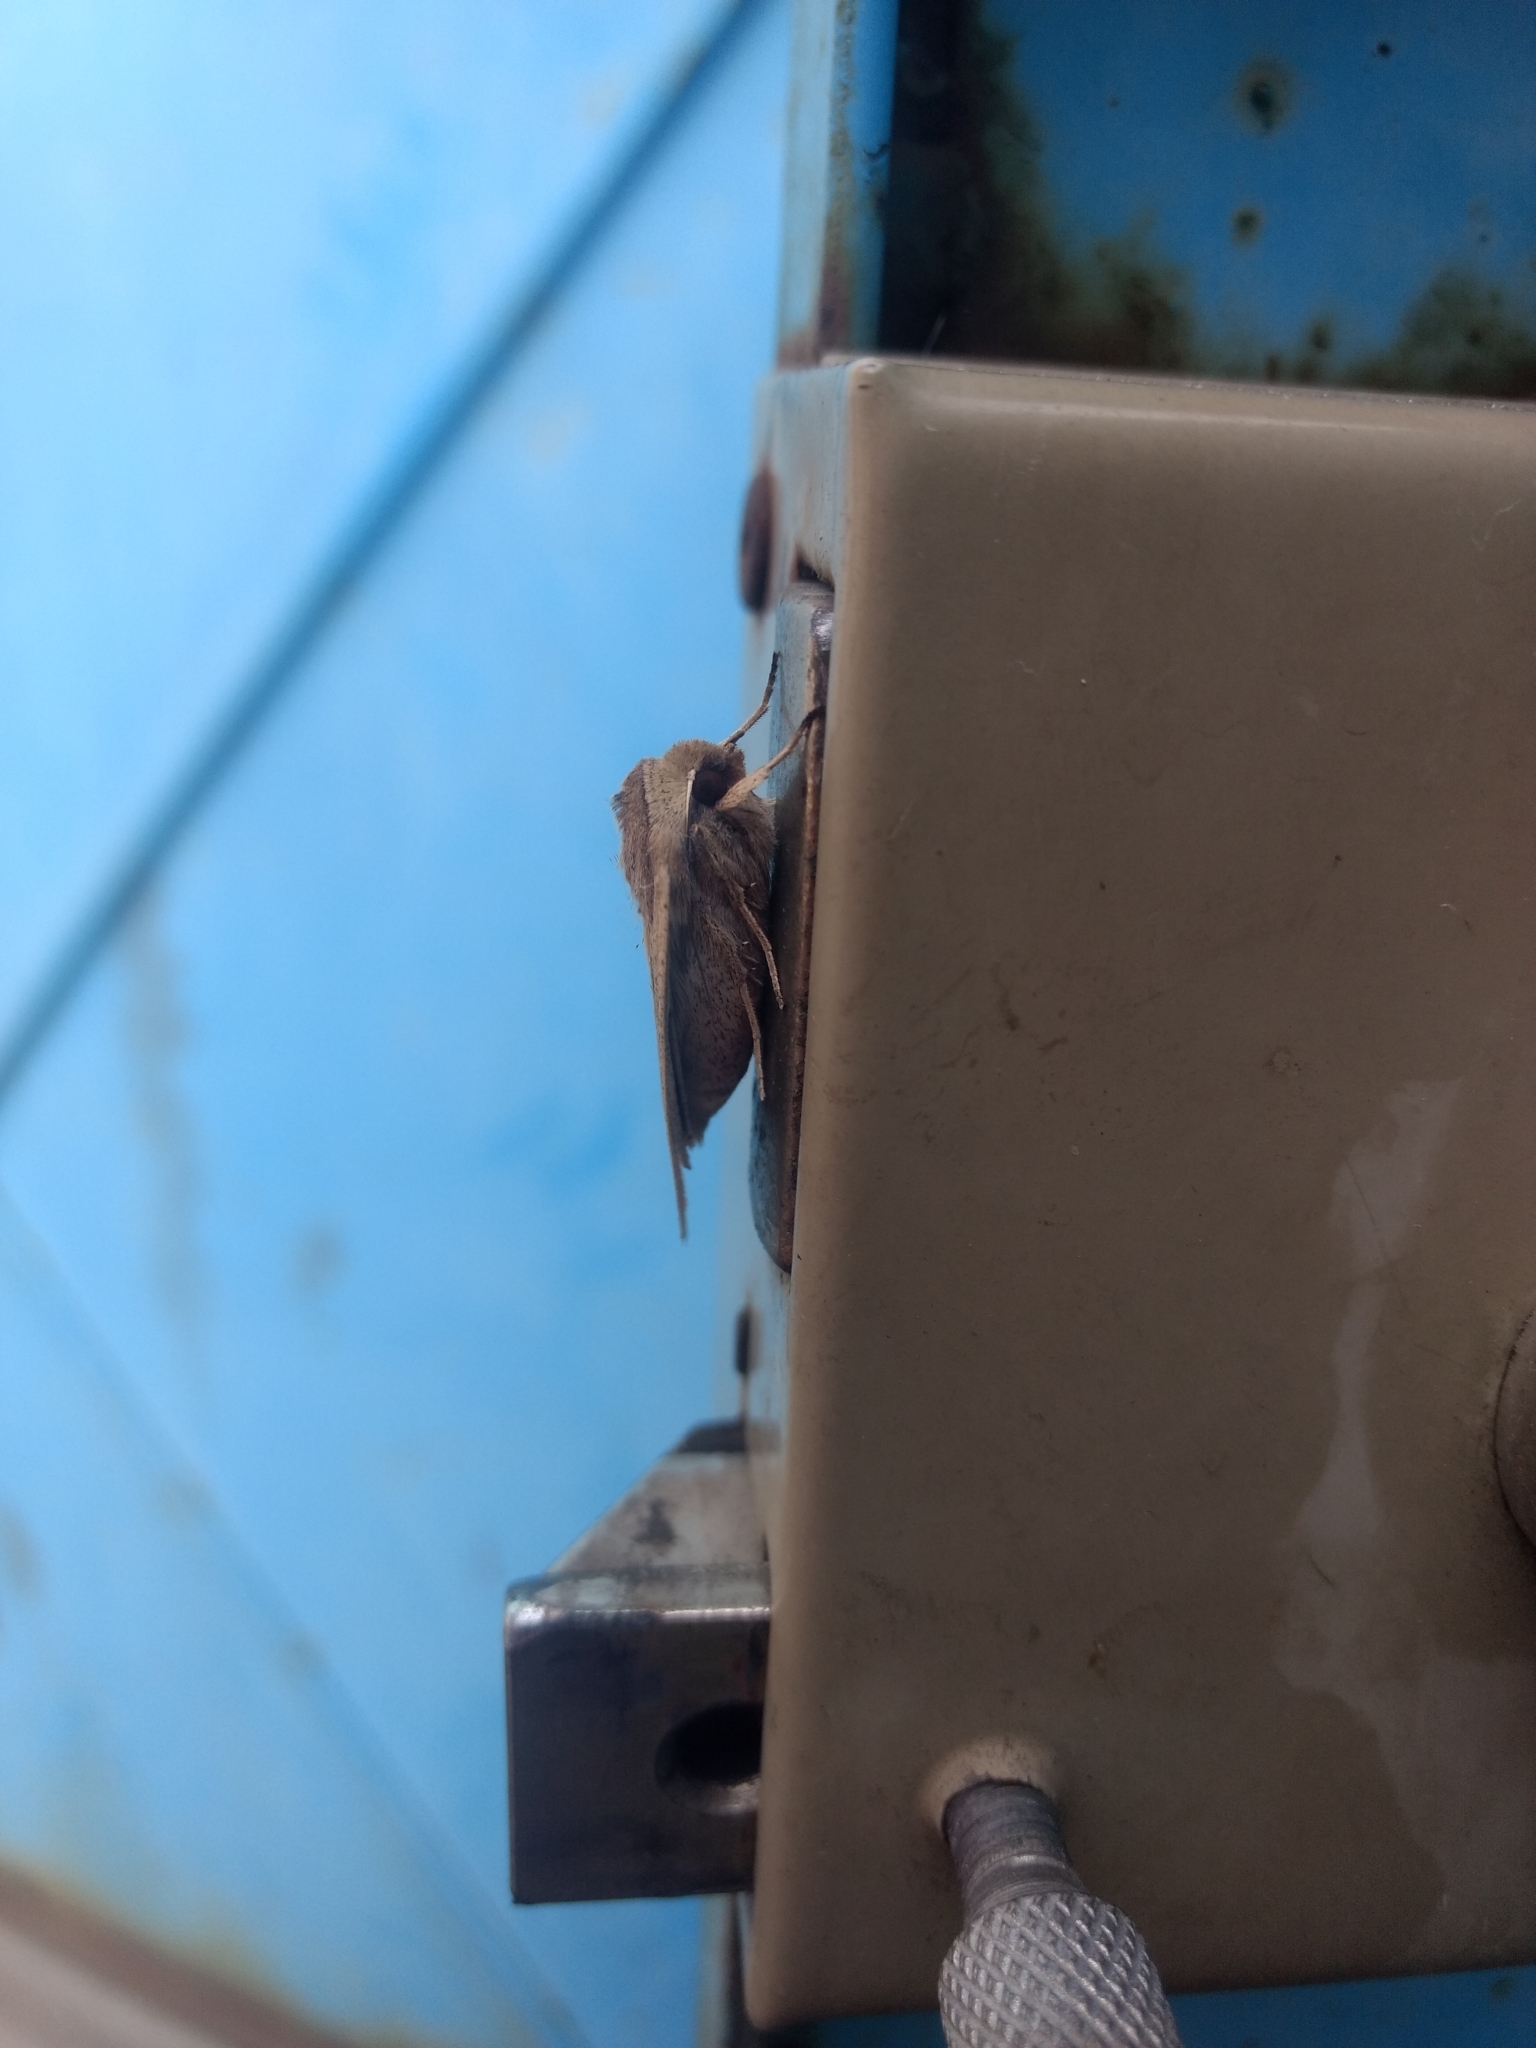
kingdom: Animalia
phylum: Arthropoda
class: Insecta
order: Lepidoptera
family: Noctuidae
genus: Mythimna
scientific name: Mythimna unipuncta
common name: White-speck
